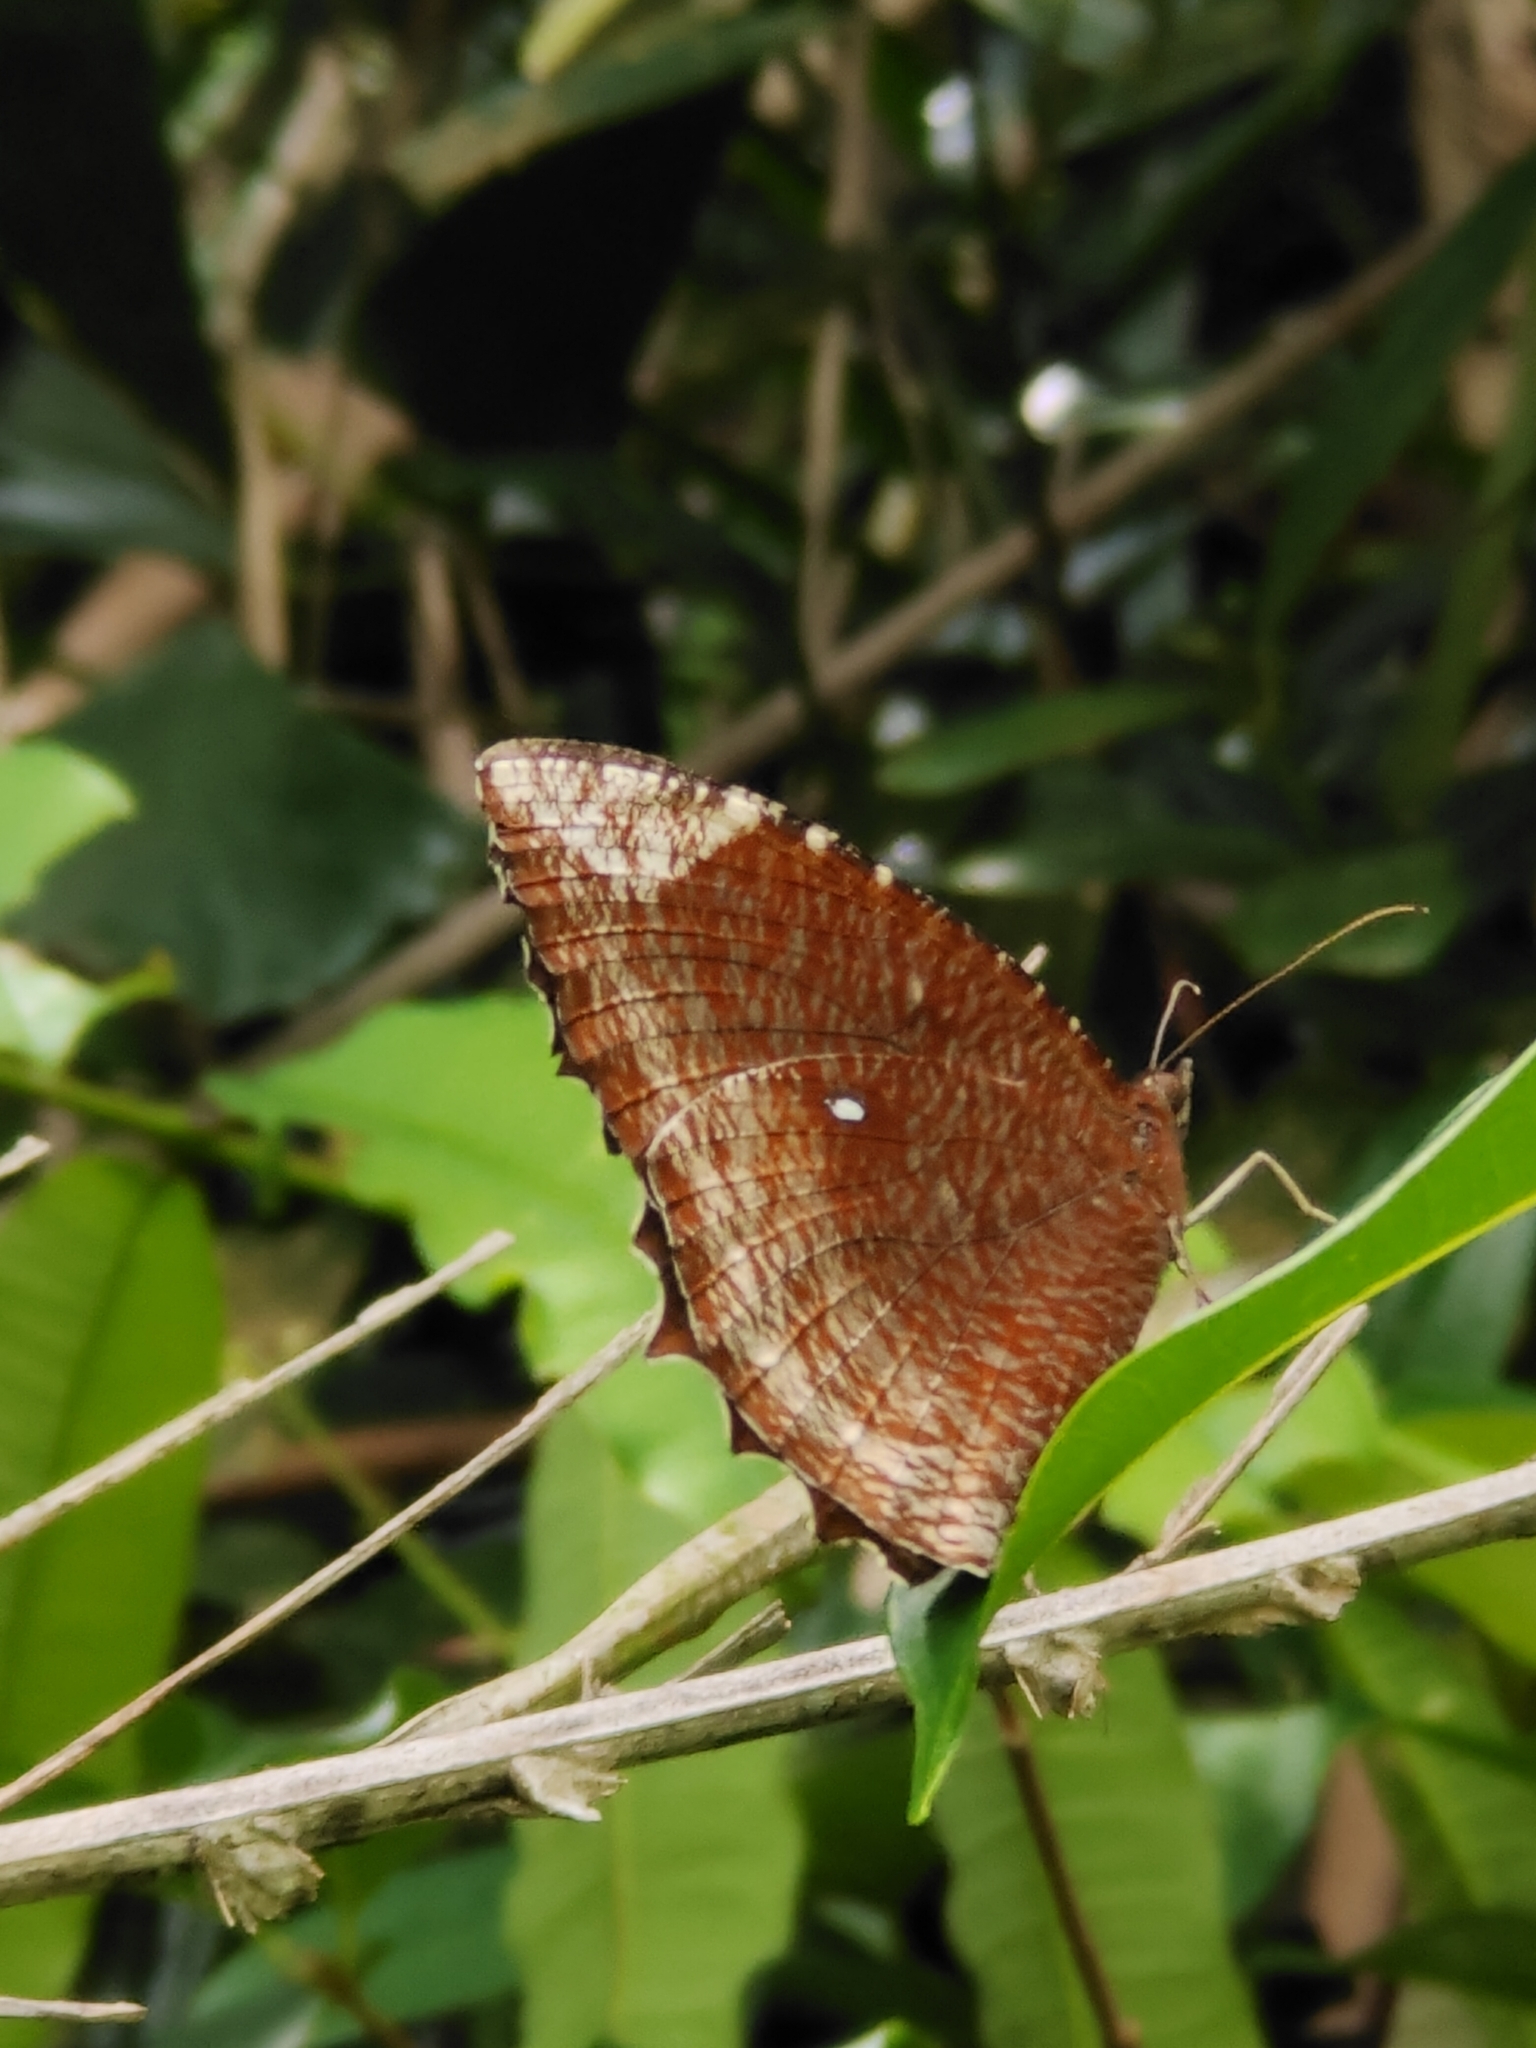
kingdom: Animalia
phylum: Arthropoda
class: Insecta
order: Lepidoptera
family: Nymphalidae
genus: Elymnias
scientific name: Elymnias hypermnestra
